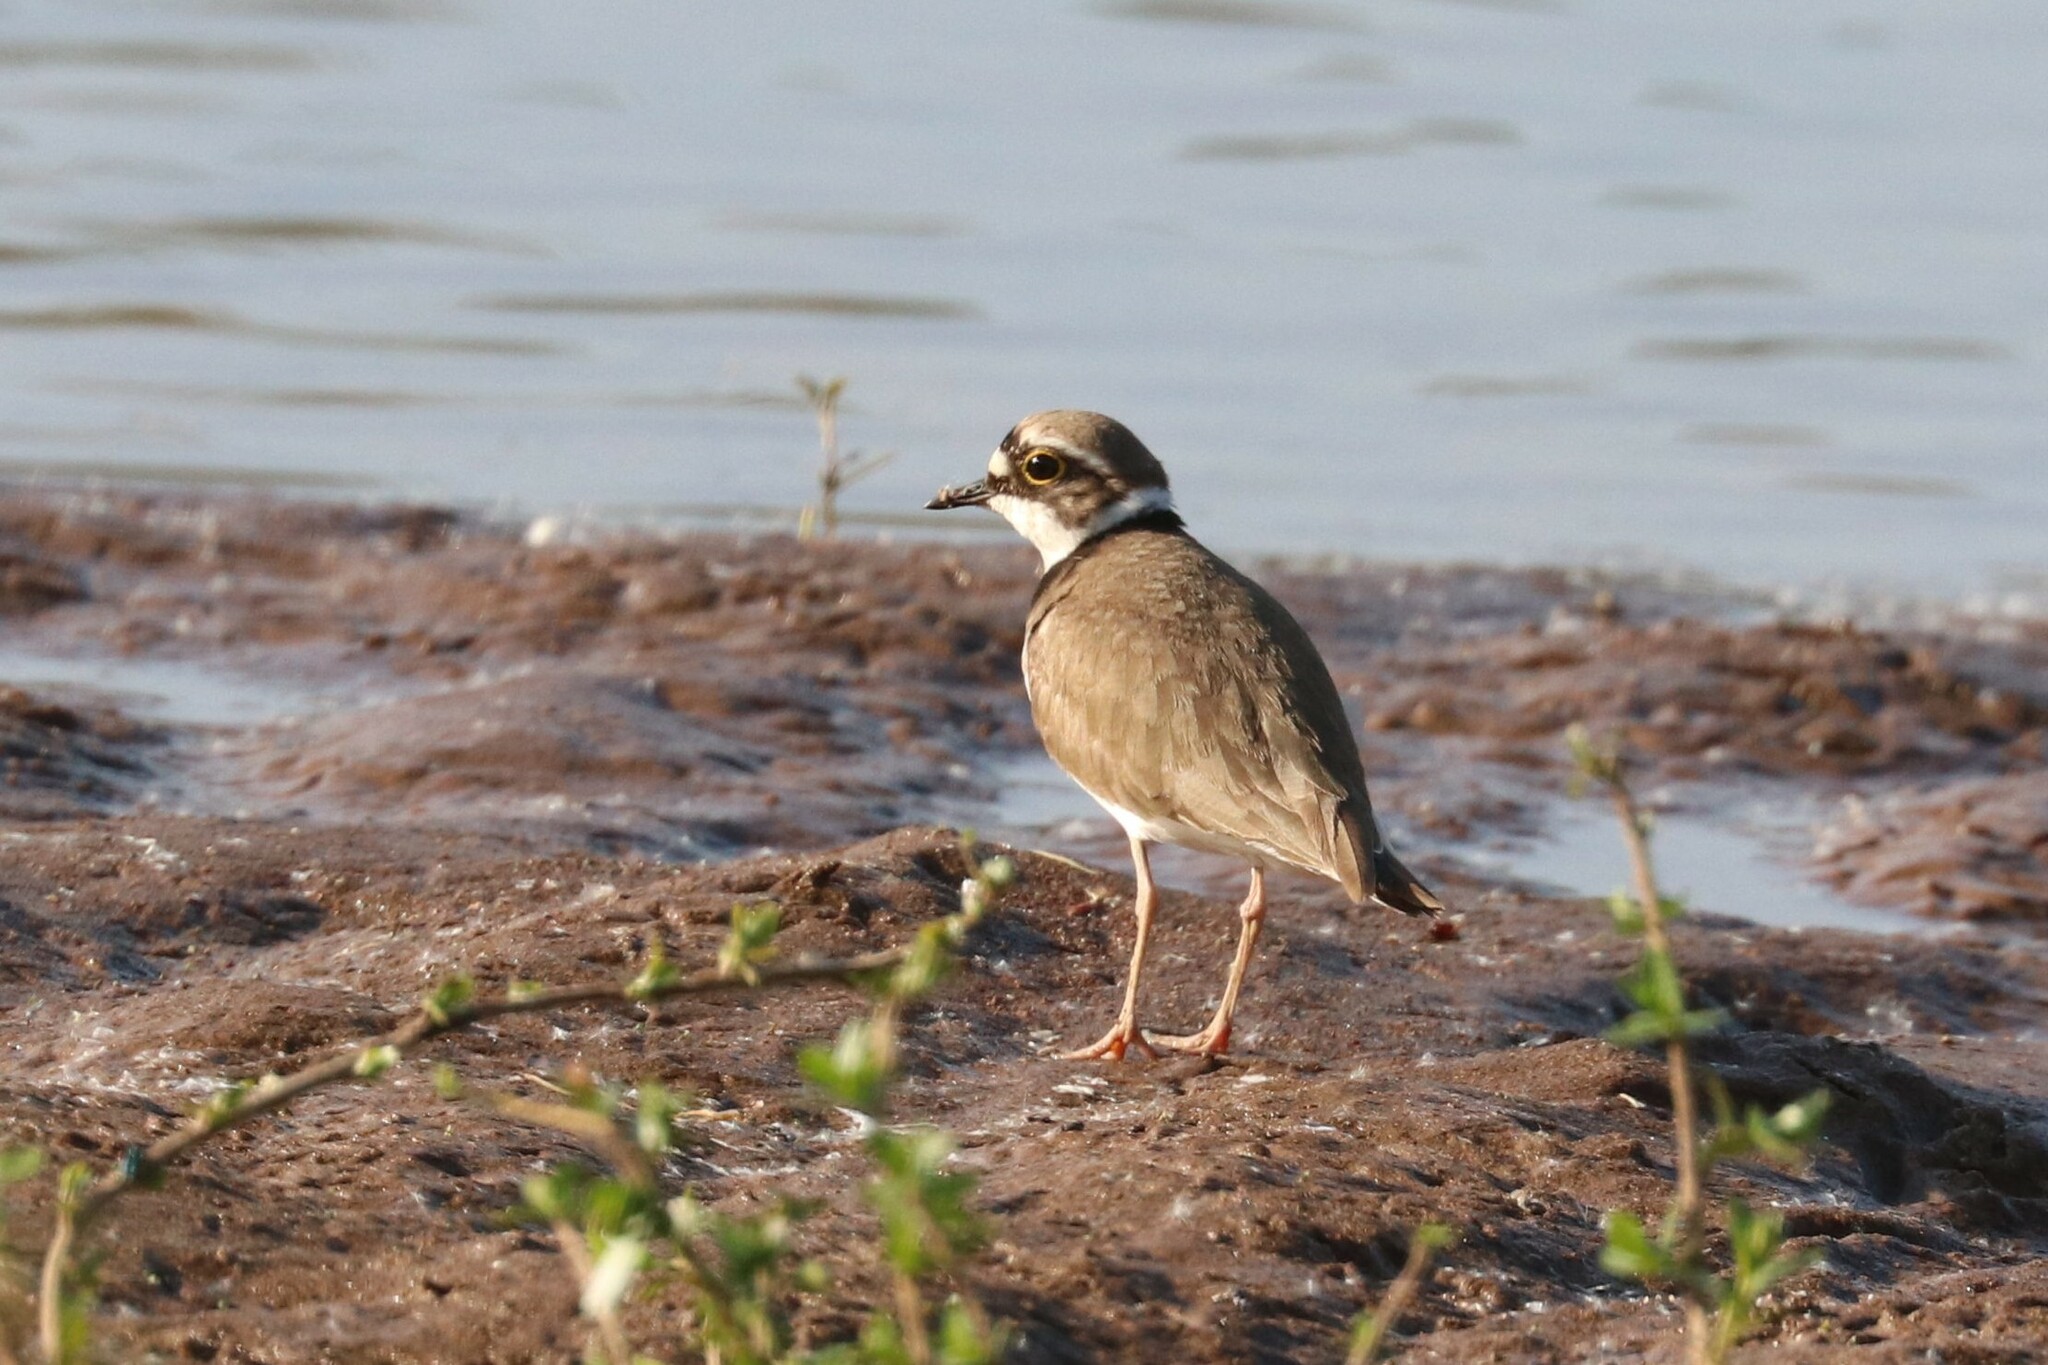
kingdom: Animalia
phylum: Chordata
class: Aves
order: Charadriiformes
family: Charadriidae
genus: Charadrius
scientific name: Charadrius dubius
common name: Little ringed plover
